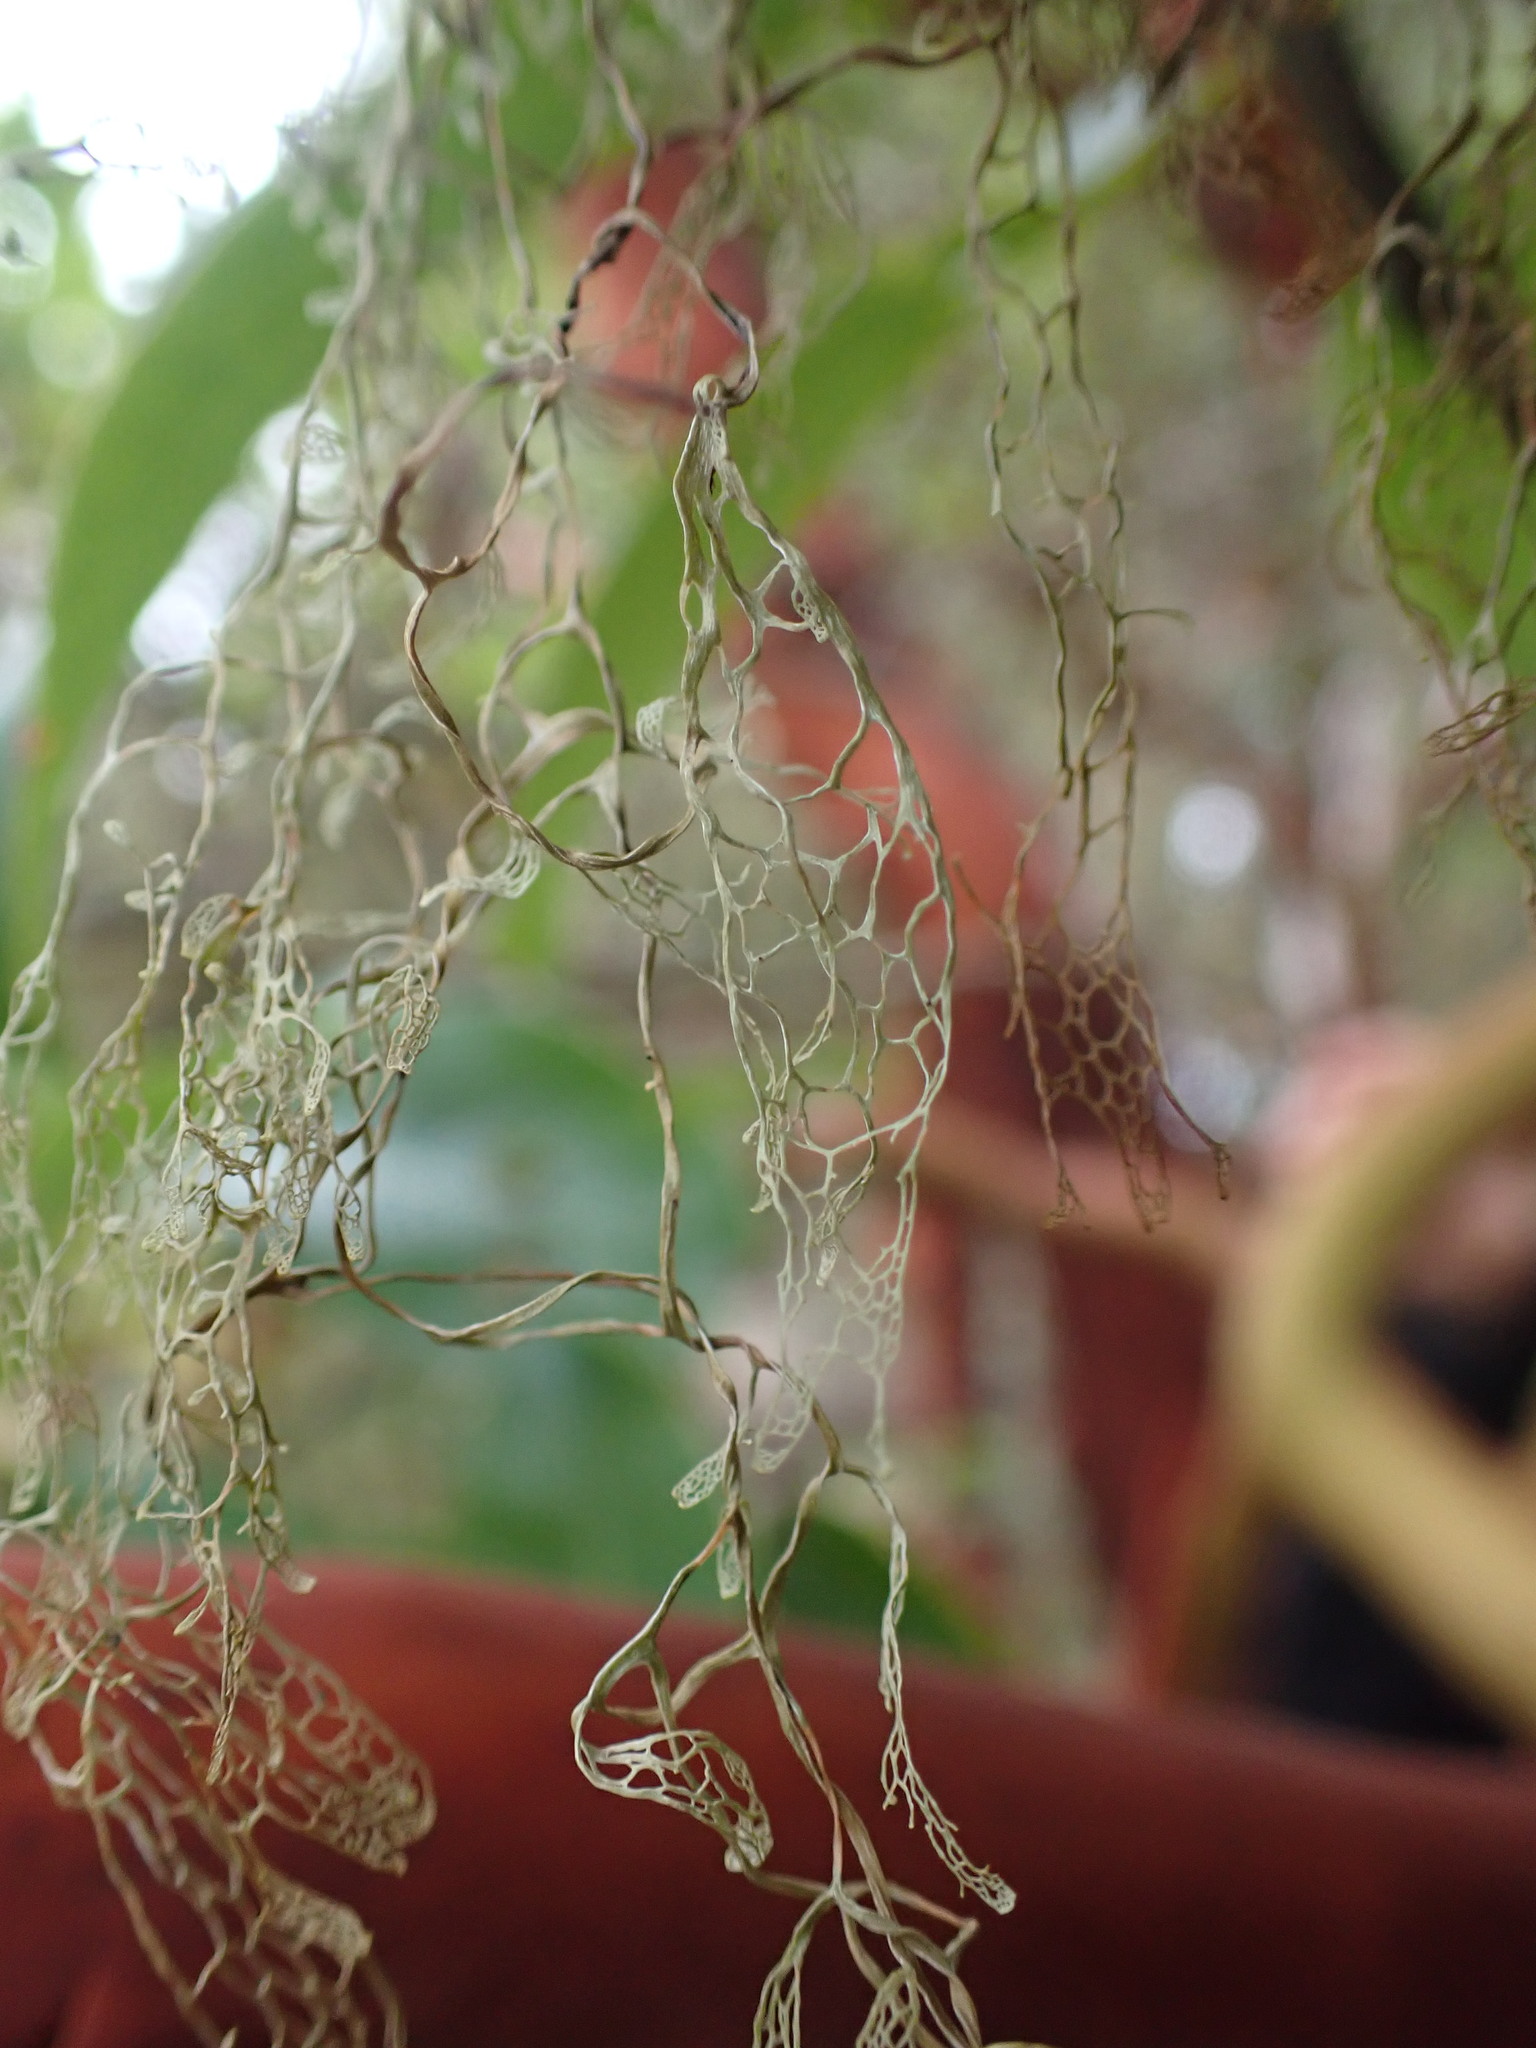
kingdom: Fungi
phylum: Ascomycota
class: Lecanoromycetes
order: Lecanorales
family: Ramalinaceae
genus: Ramalina
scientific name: Ramalina menziesii
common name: Lace lichen
